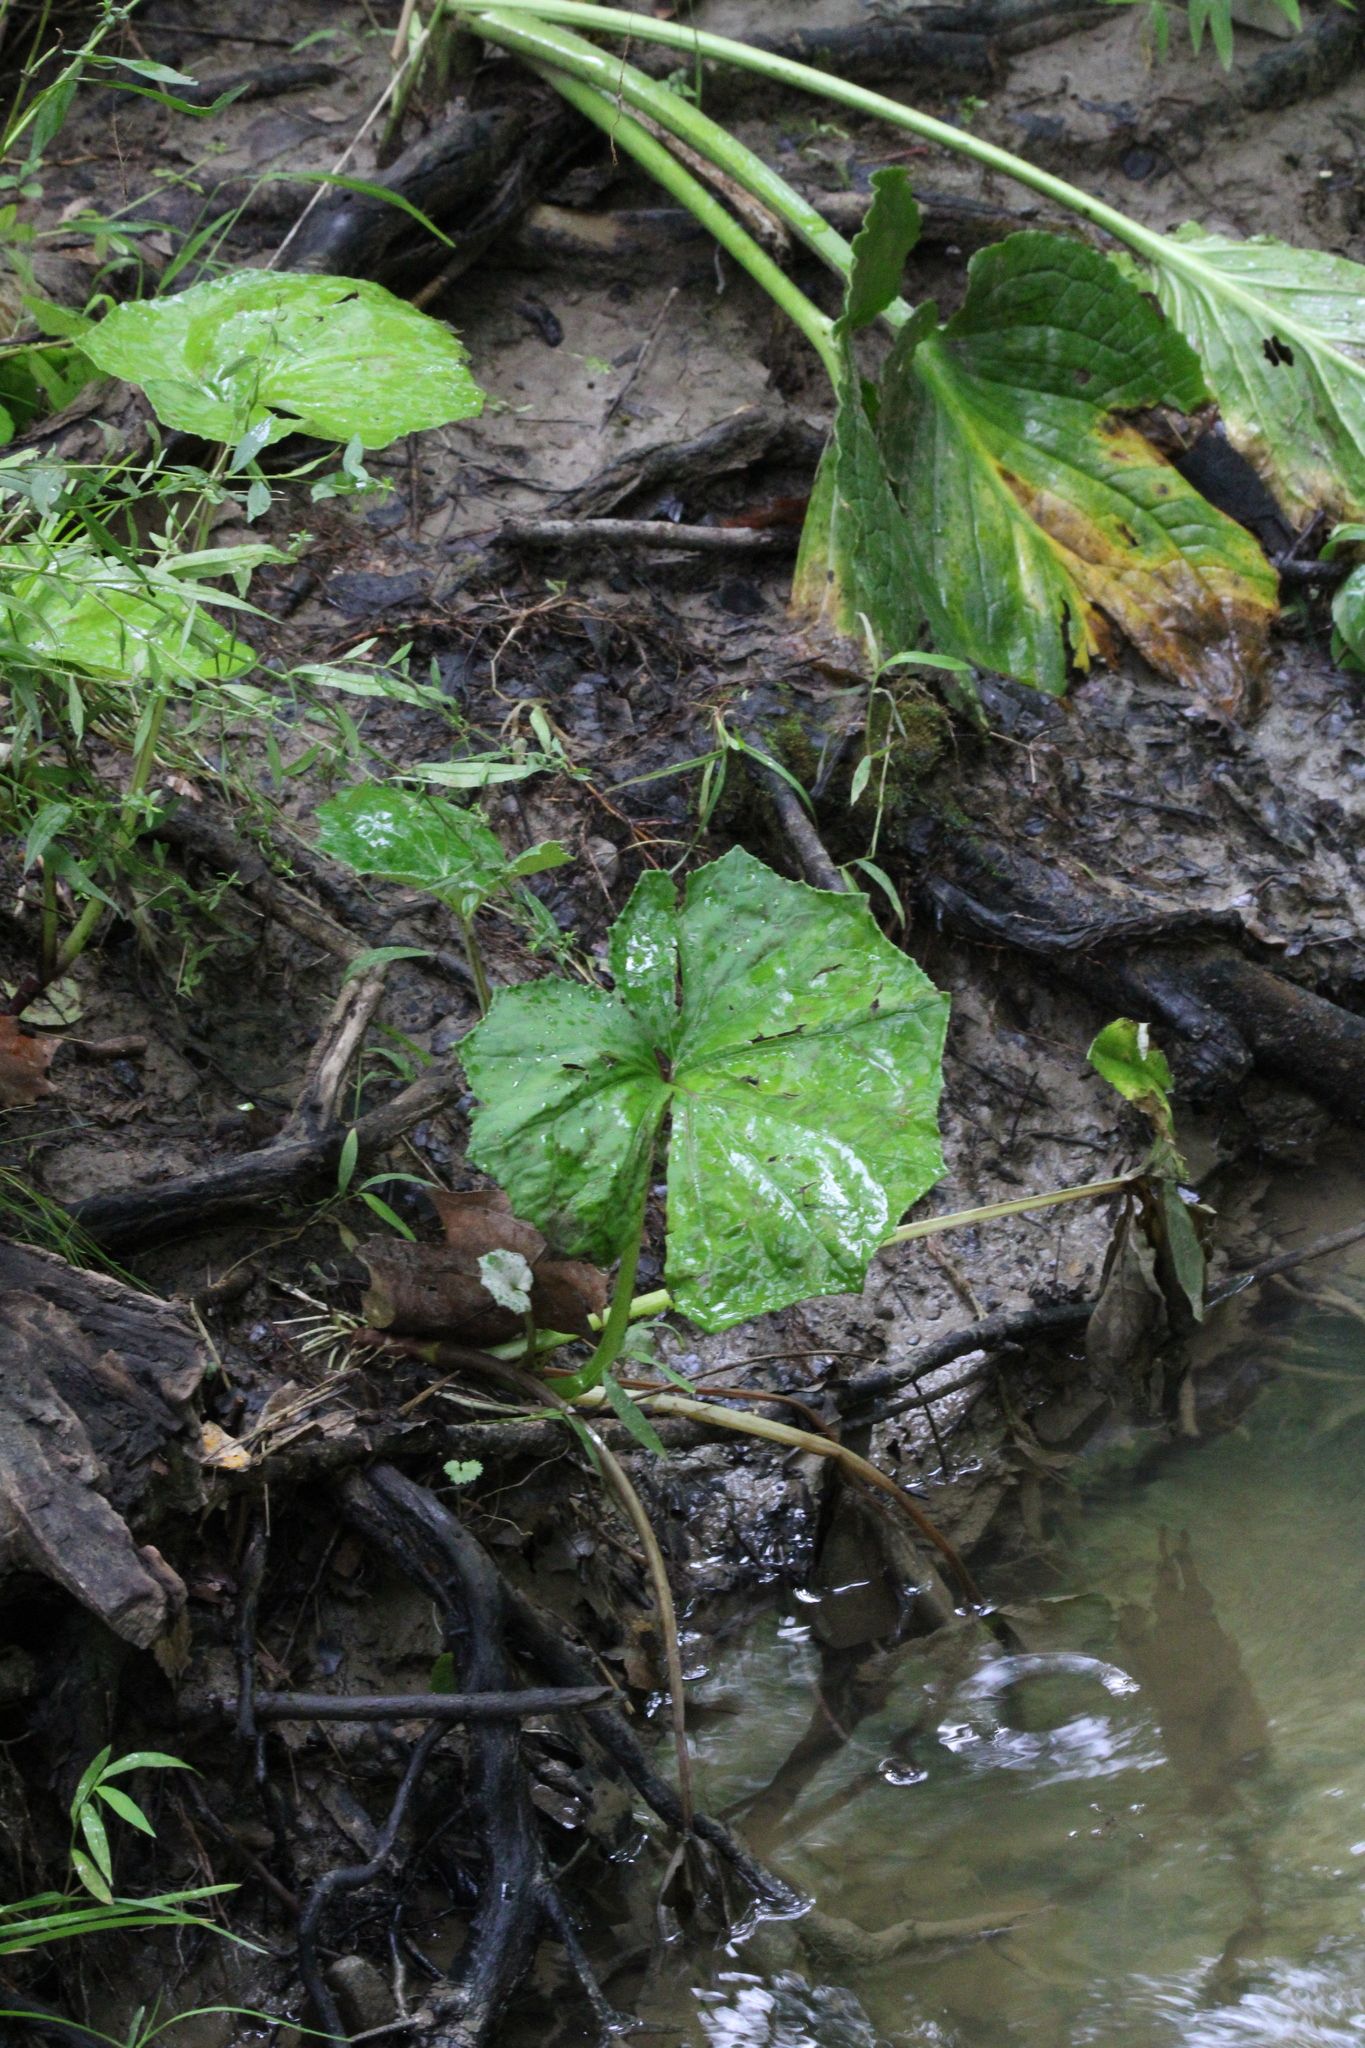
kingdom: Plantae
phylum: Tracheophyta
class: Magnoliopsida
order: Asterales
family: Asteraceae
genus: Tussilago
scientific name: Tussilago farfara
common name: Coltsfoot
